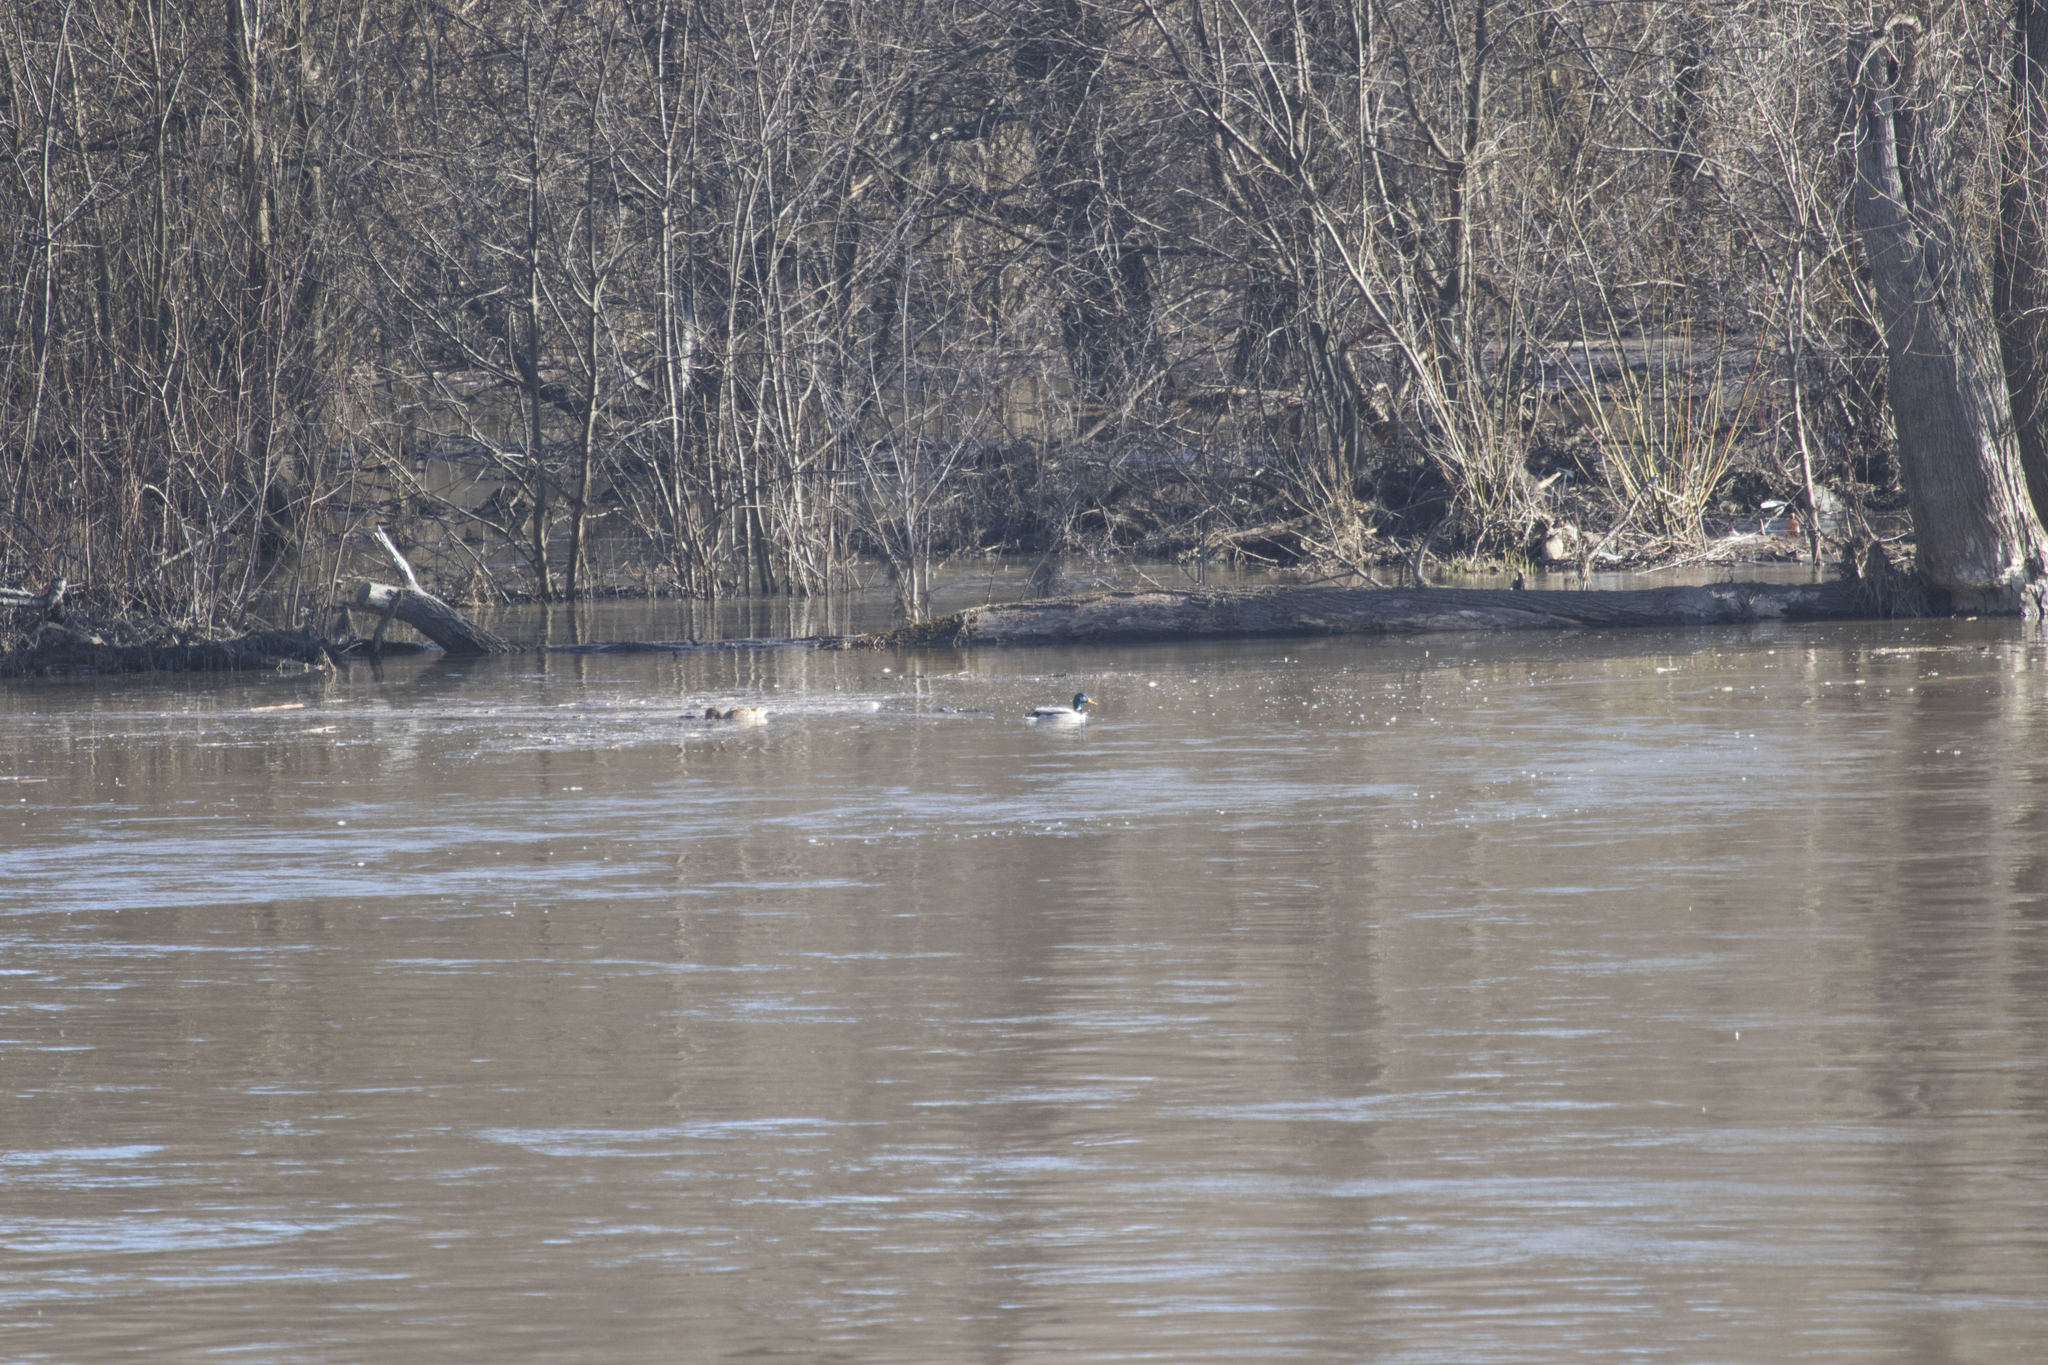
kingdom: Animalia
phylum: Chordata
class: Aves
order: Anseriformes
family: Anatidae
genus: Anas
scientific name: Anas platyrhynchos
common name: Mallard
